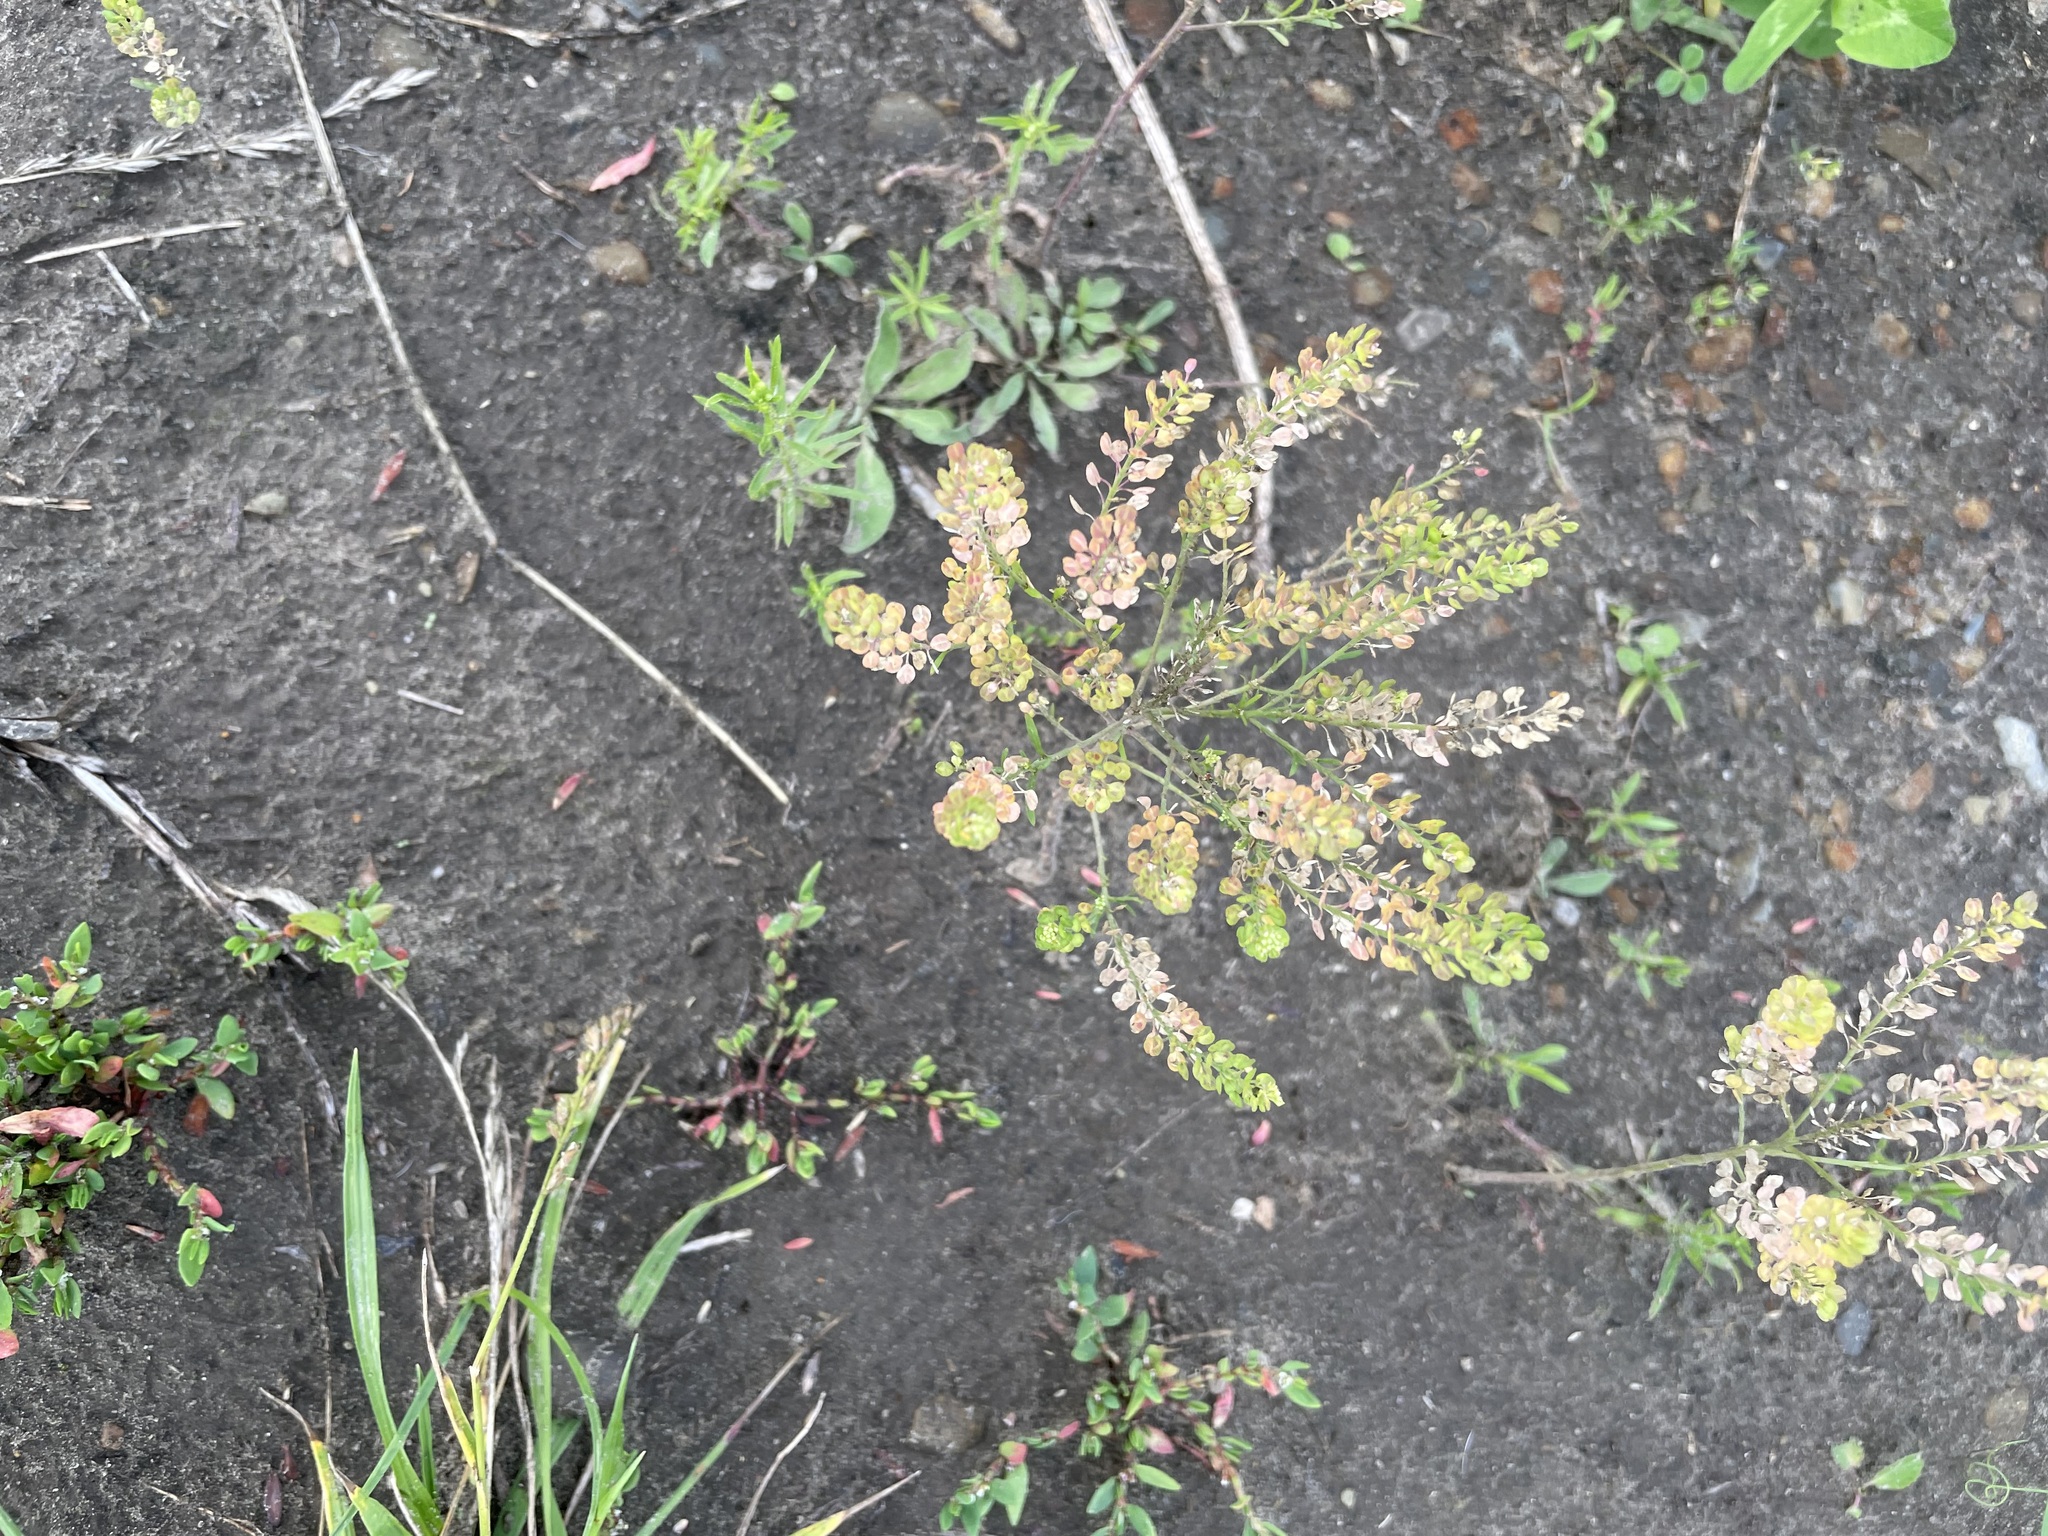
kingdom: Plantae
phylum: Tracheophyta
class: Magnoliopsida
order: Brassicales
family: Brassicaceae
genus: Lepidium
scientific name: Lepidium densiflorum
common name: Miner's pepperwort
